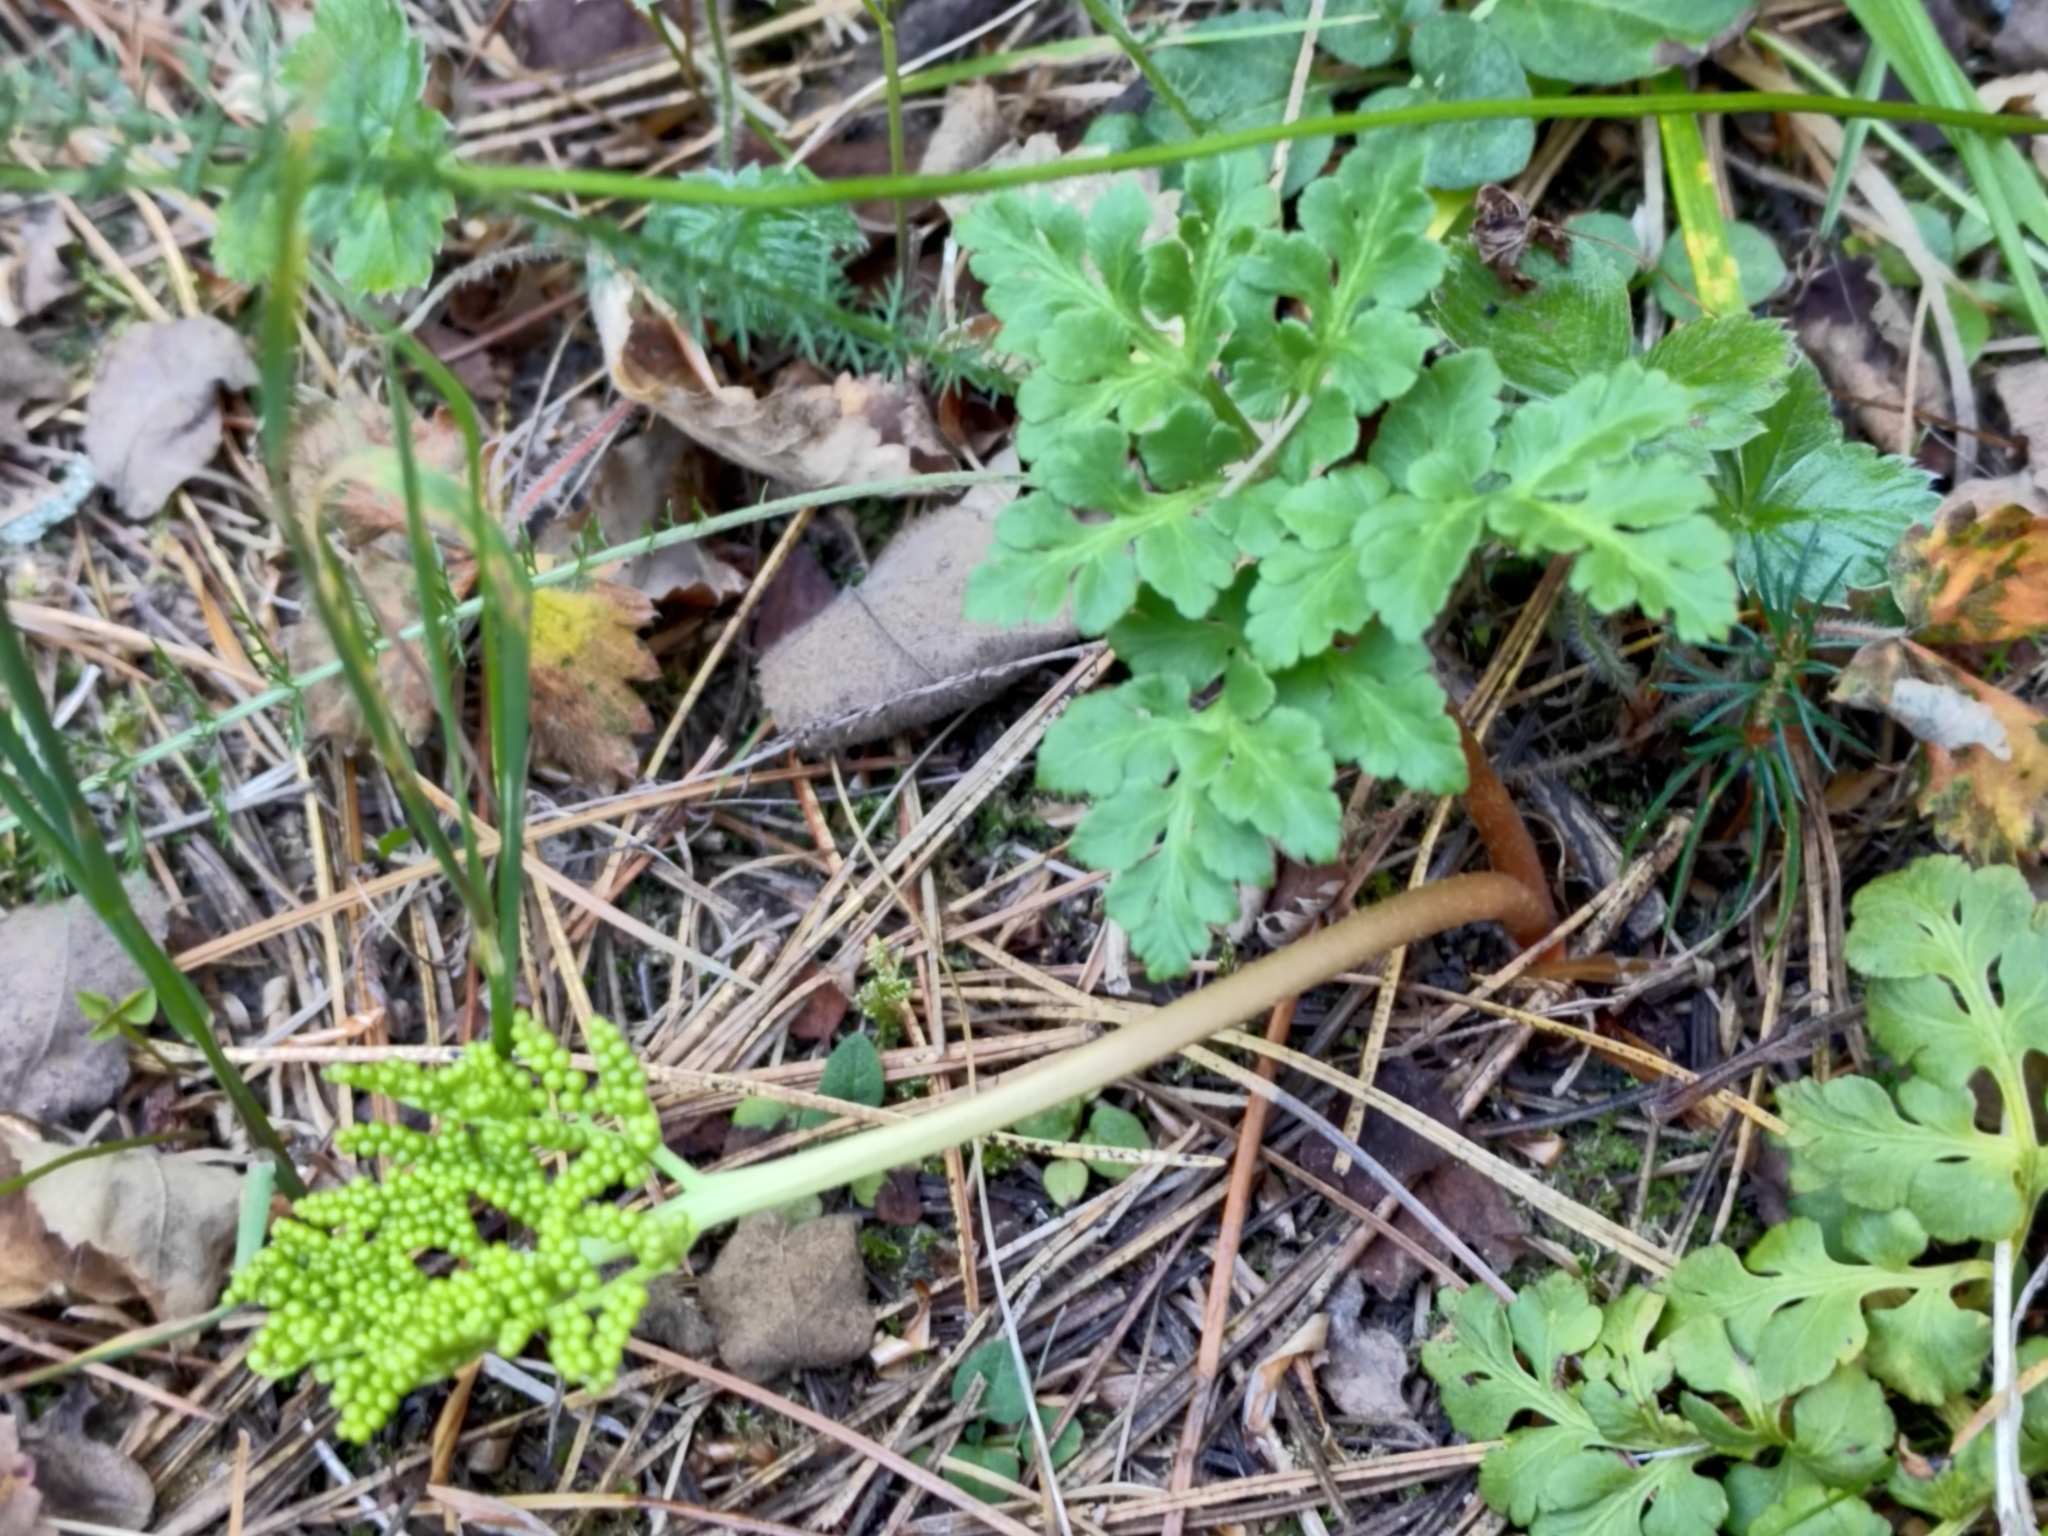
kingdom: Plantae
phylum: Tracheophyta
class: Polypodiopsida
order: Ophioglossales
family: Ophioglossaceae
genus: Sceptridium
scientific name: Sceptridium multifidum
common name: Leathery grape fern
